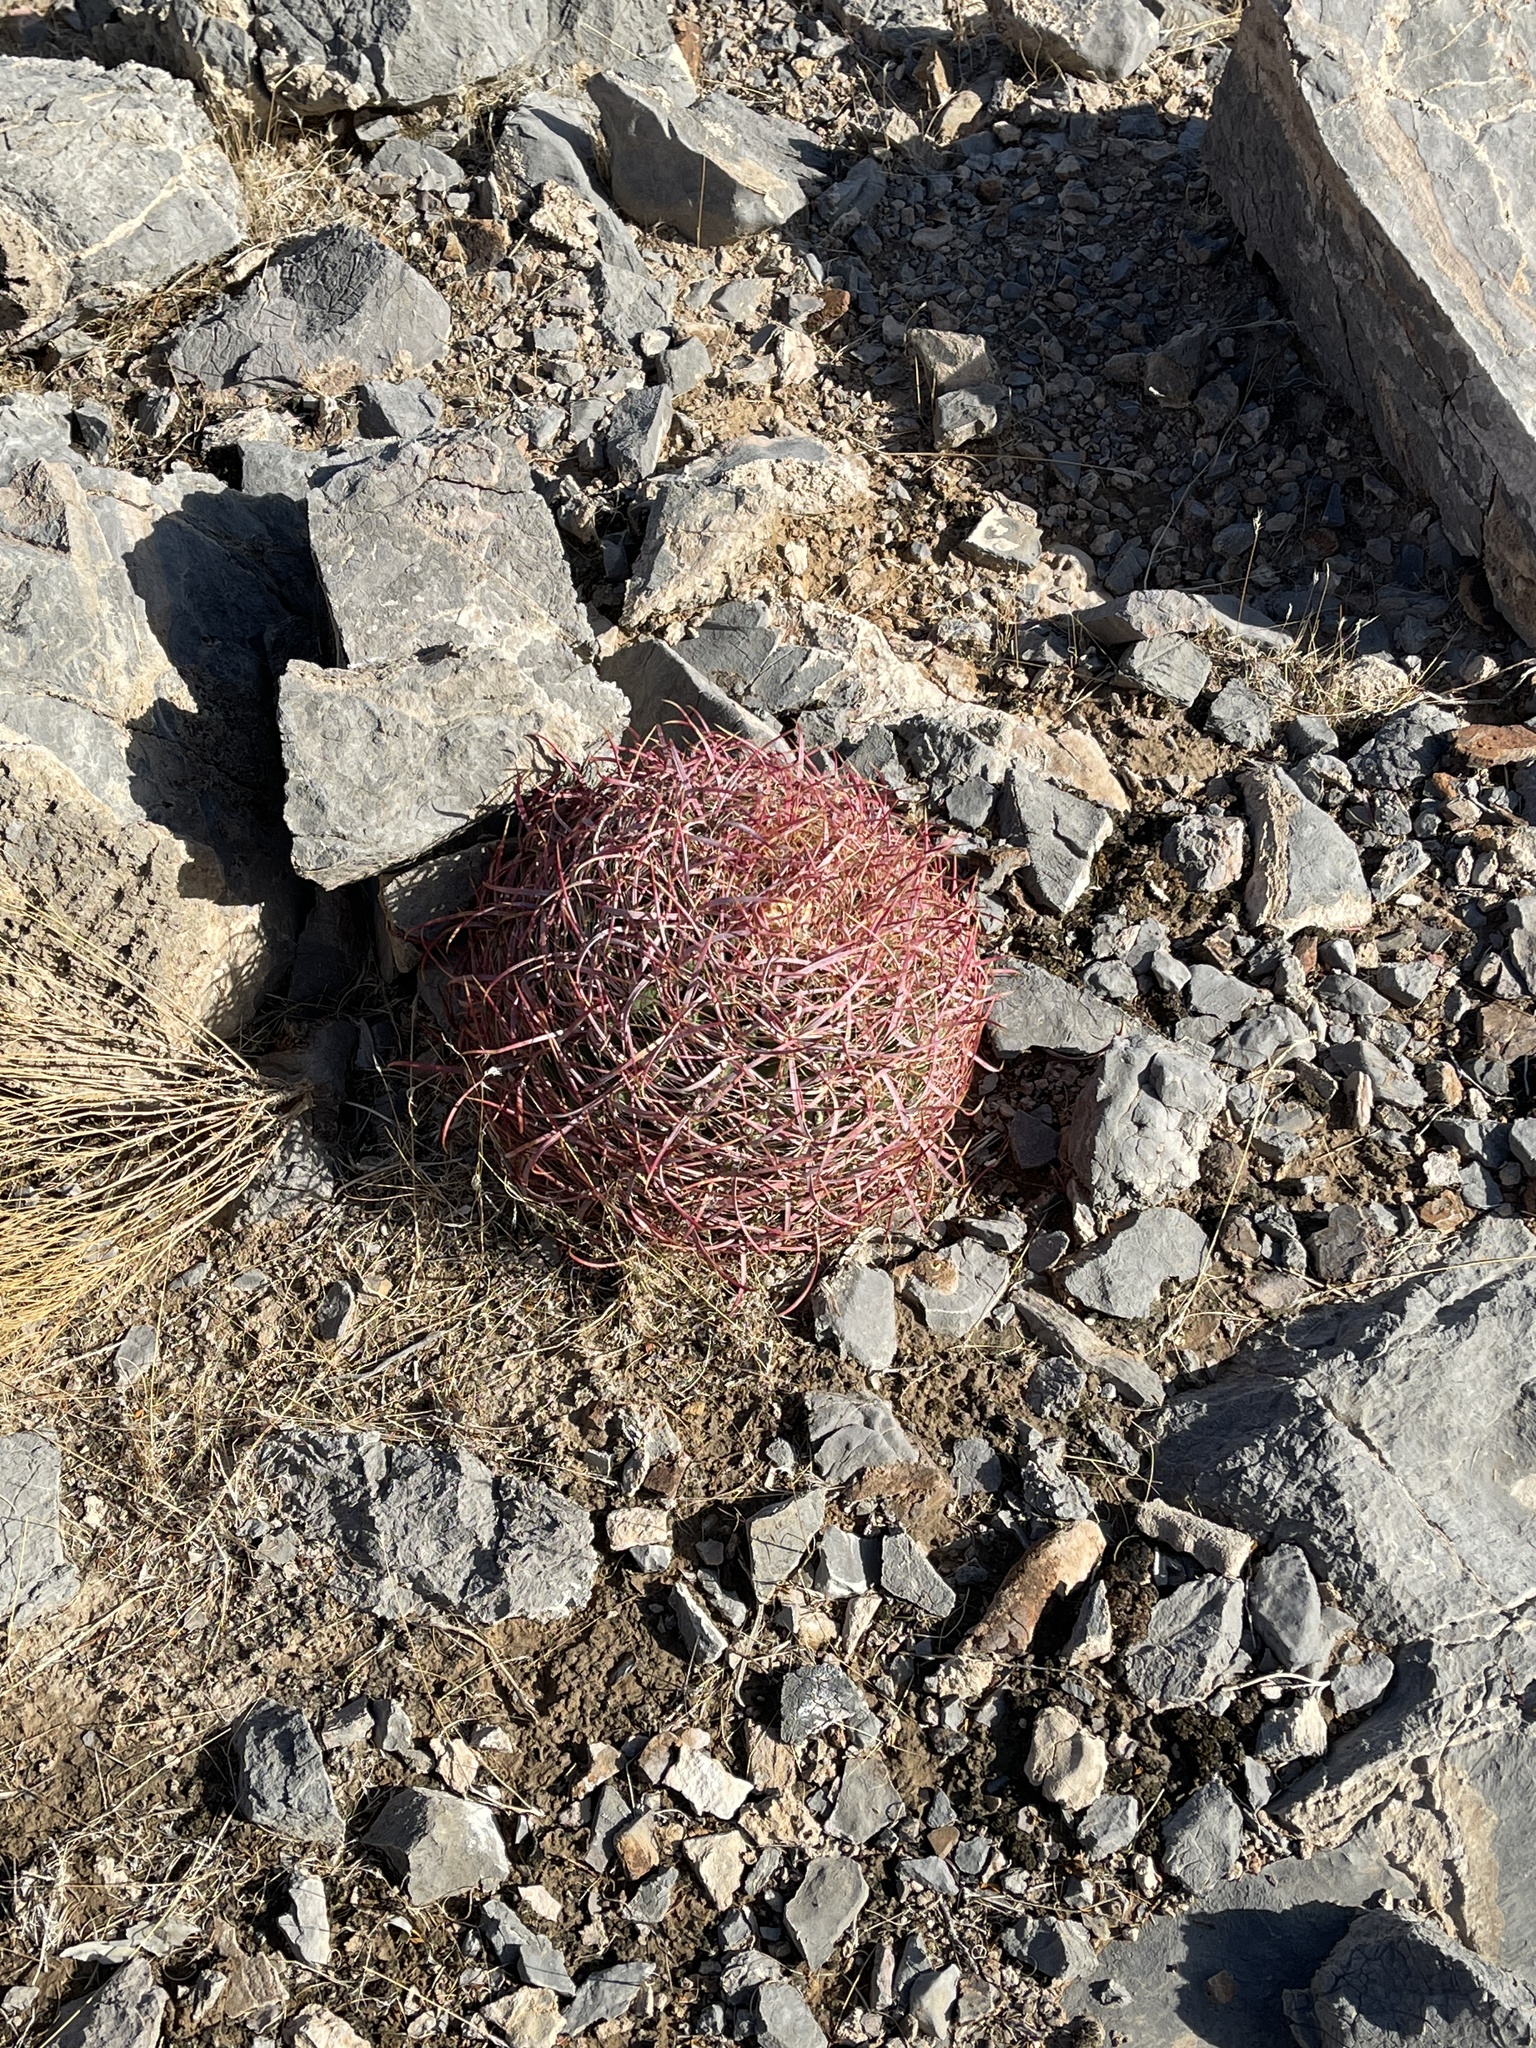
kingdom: Plantae
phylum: Tracheophyta
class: Magnoliopsida
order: Caryophyllales
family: Cactaceae
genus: Ferocactus
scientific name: Ferocactus cylindraceus
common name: California barrel cactus
